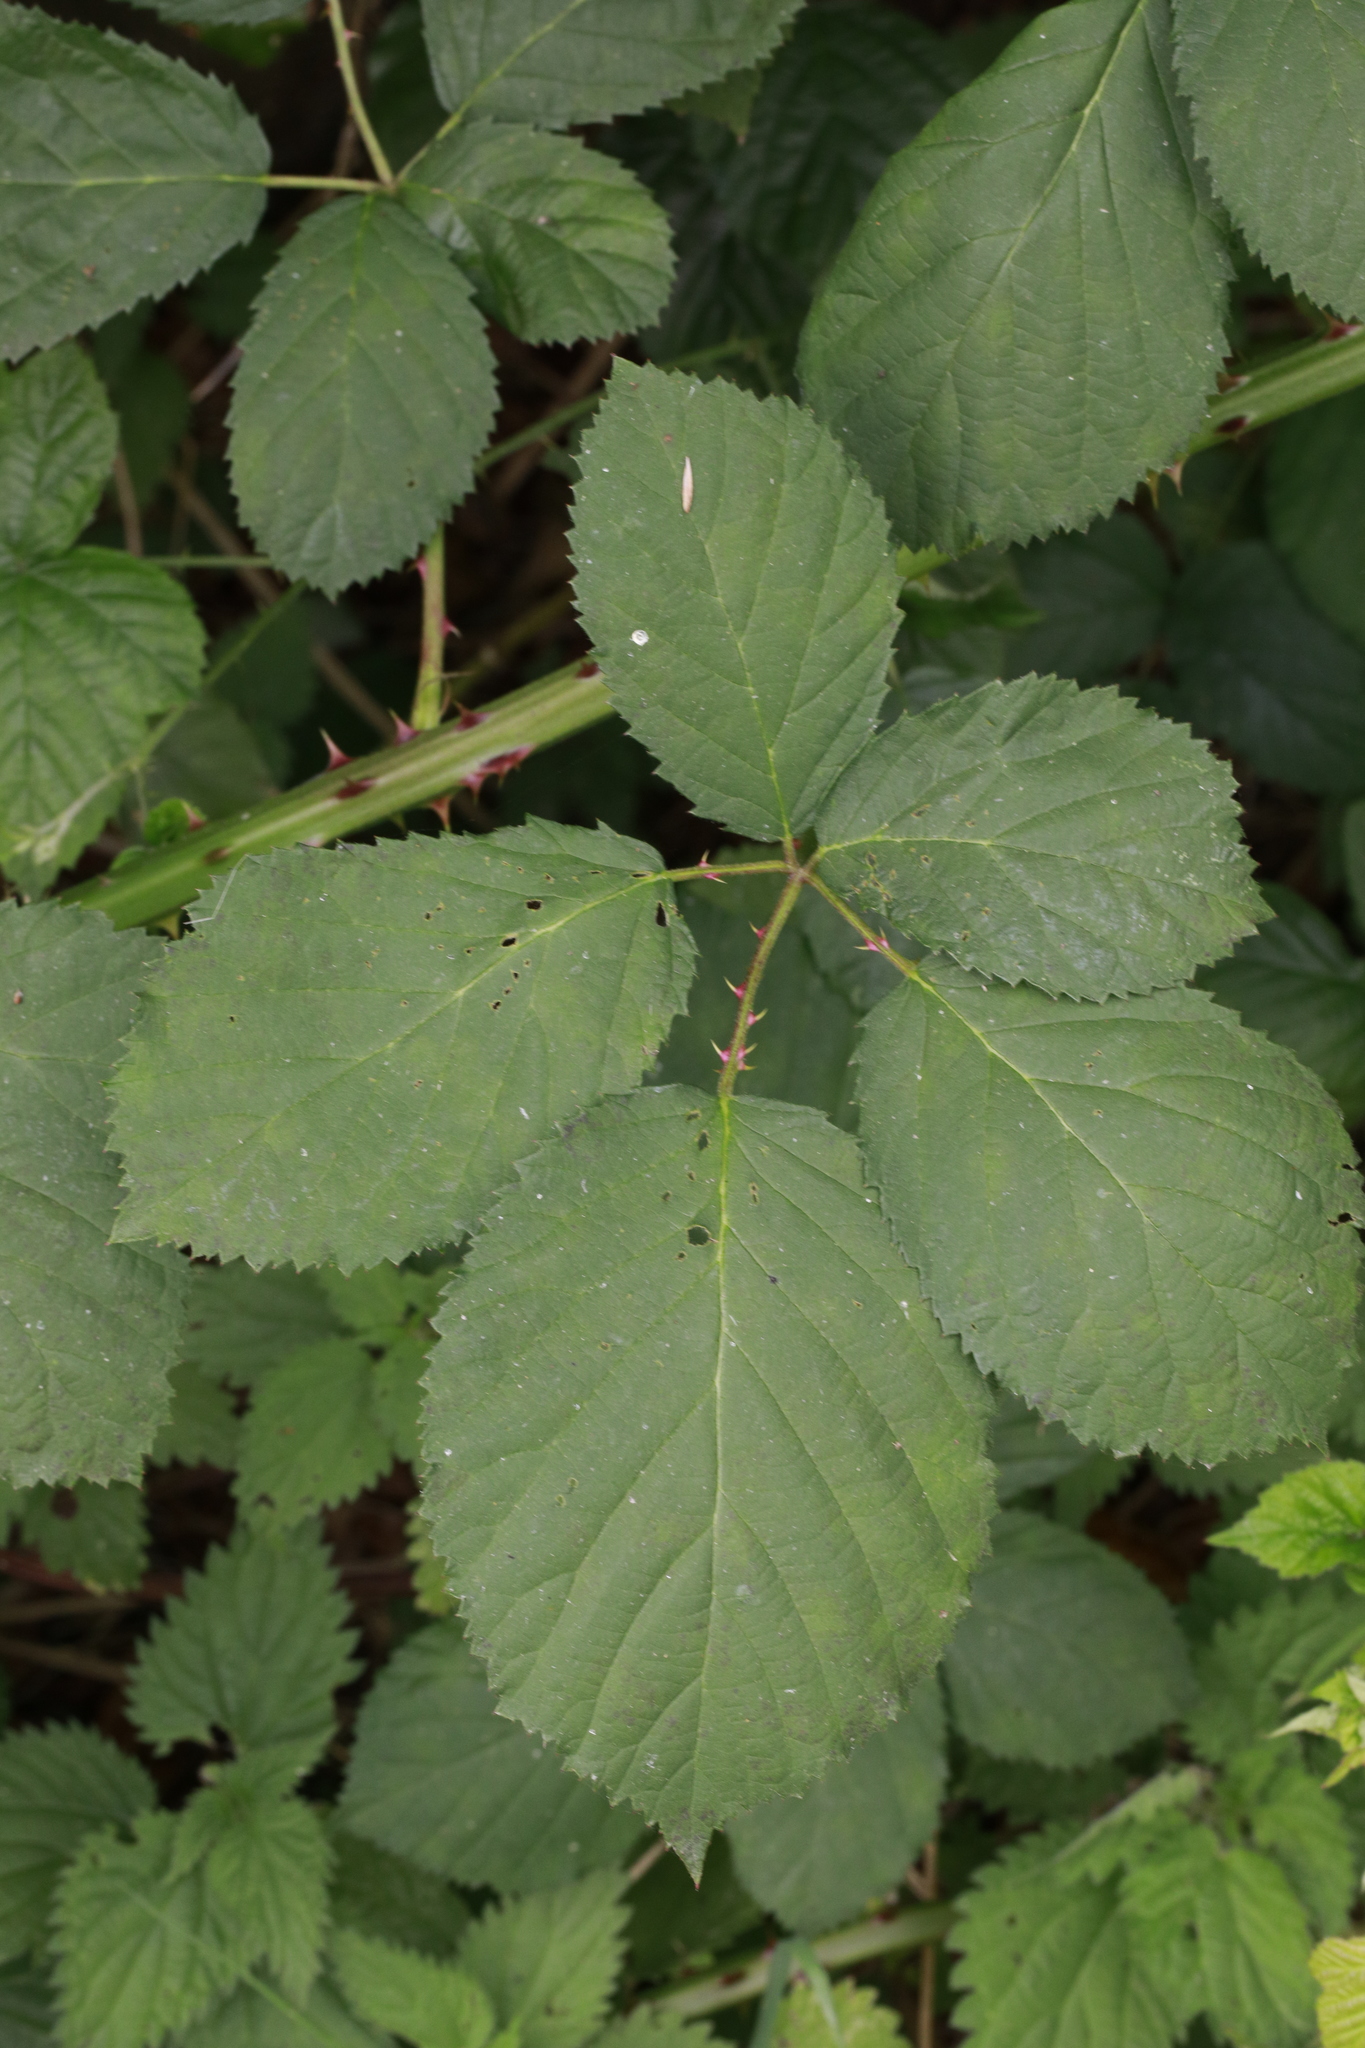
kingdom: Plantae
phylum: Tracheophyta
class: Magnoliopsida
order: Rosales
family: Rosaceae
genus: Rubus
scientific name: Rubus armeniacus
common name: Himalayan blackberry
